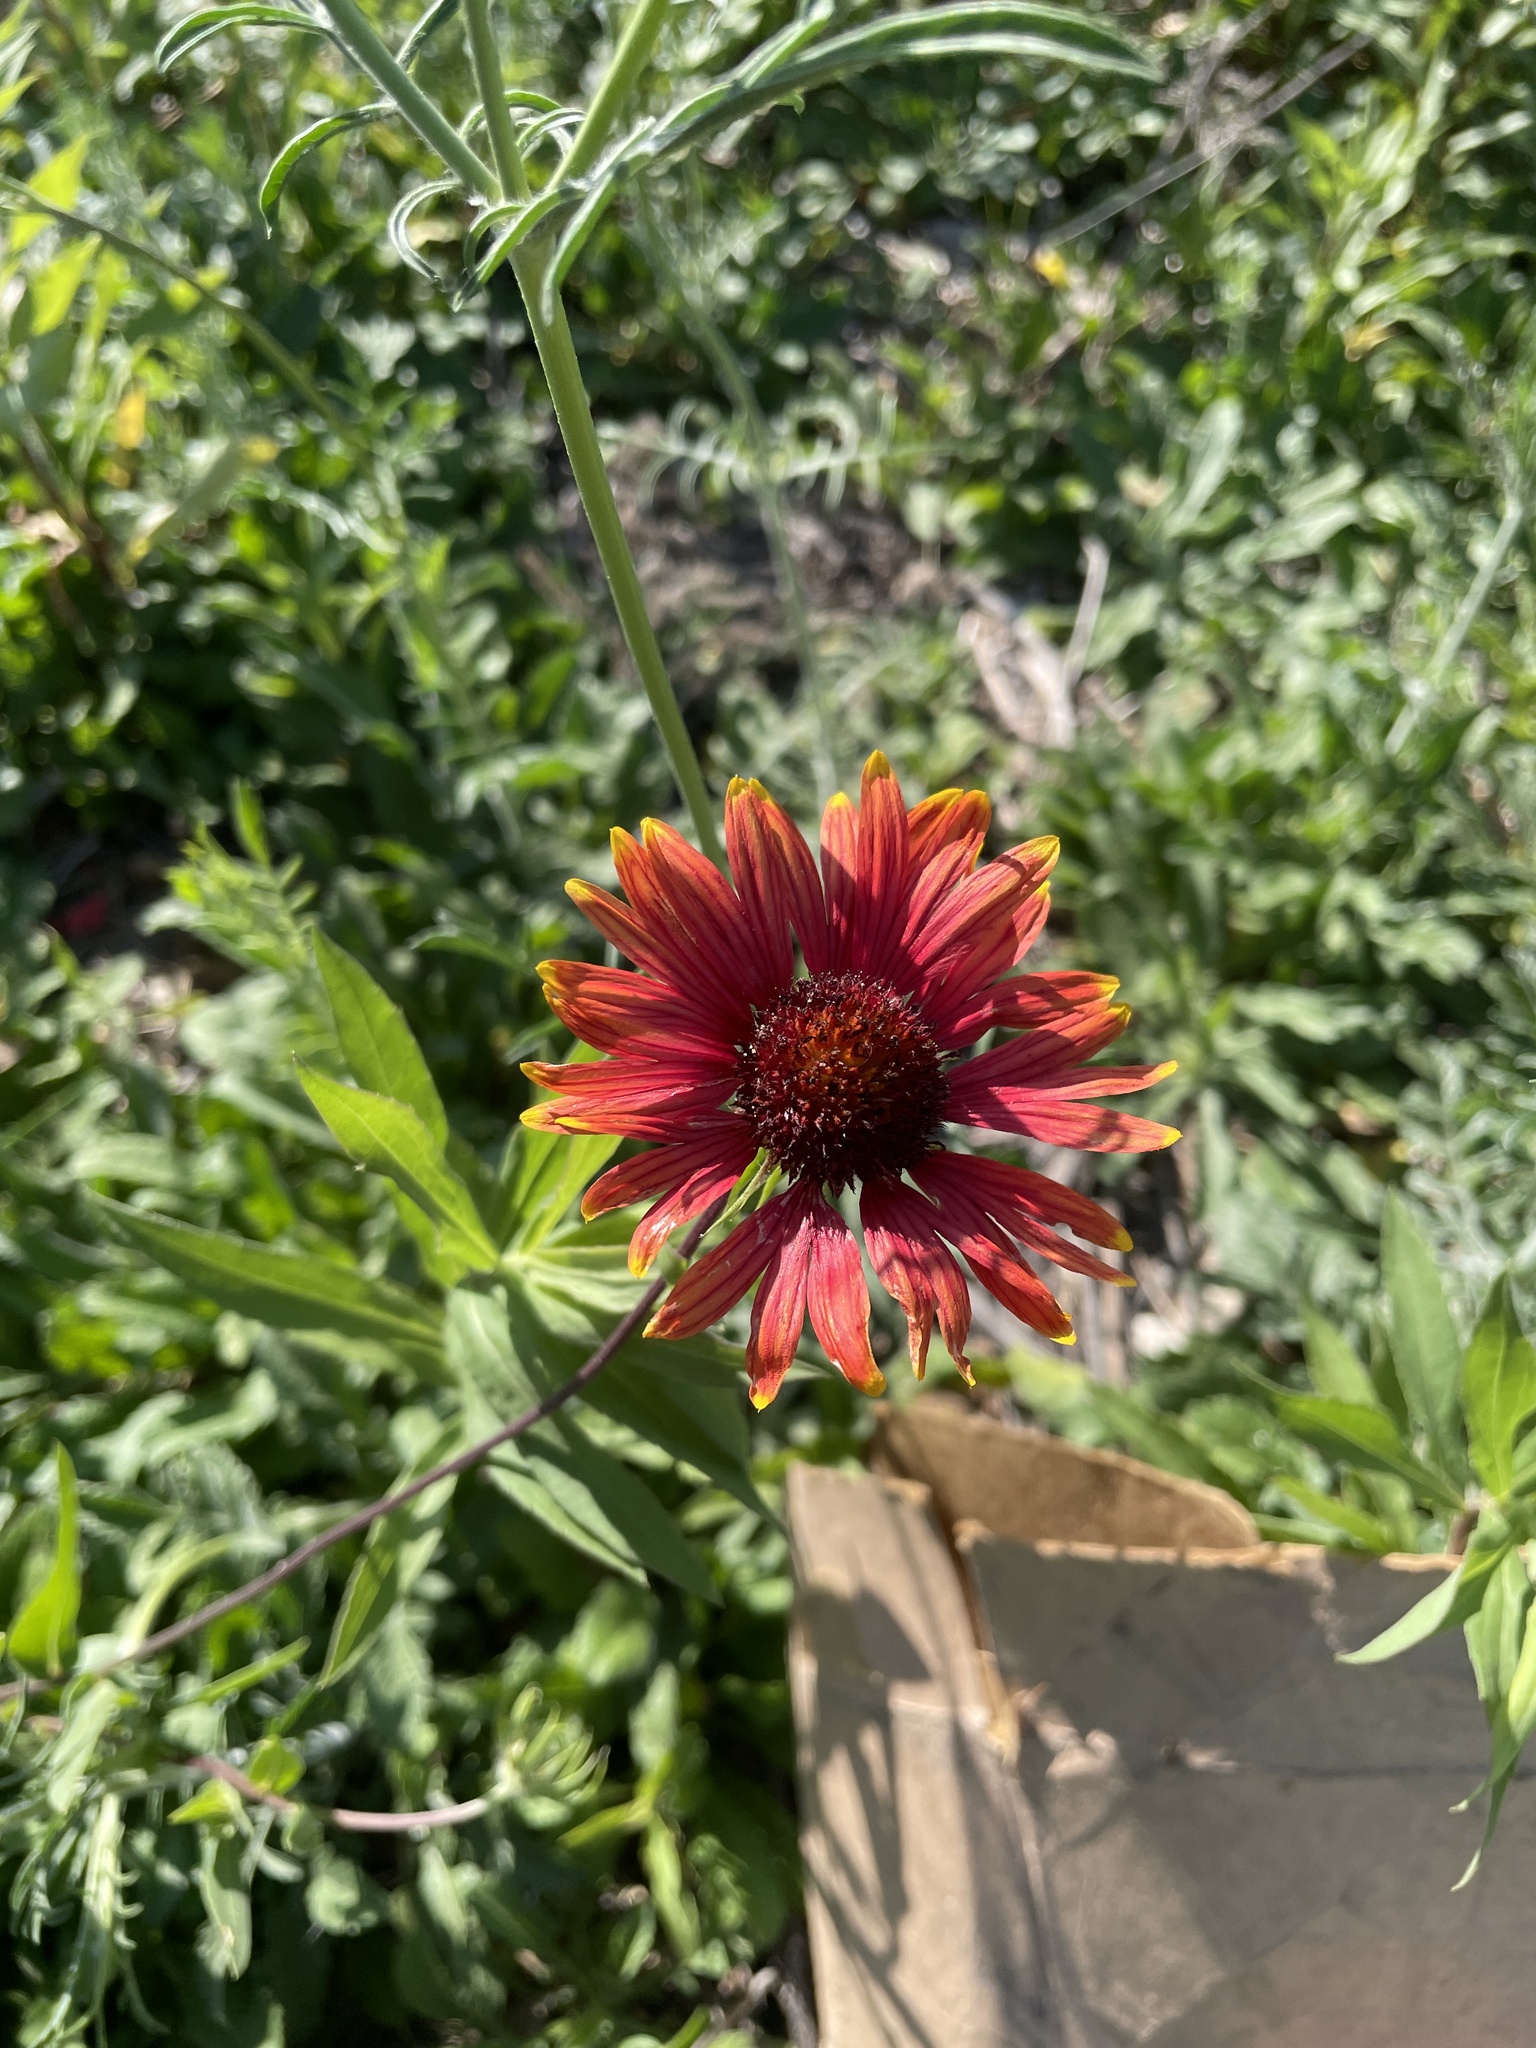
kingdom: Plantae
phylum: Tracheophyta
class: Magnoliopsida
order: Asterales
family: Asteraceae
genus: Gaillardia
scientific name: Gaillardia pulchella
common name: Firewheel
